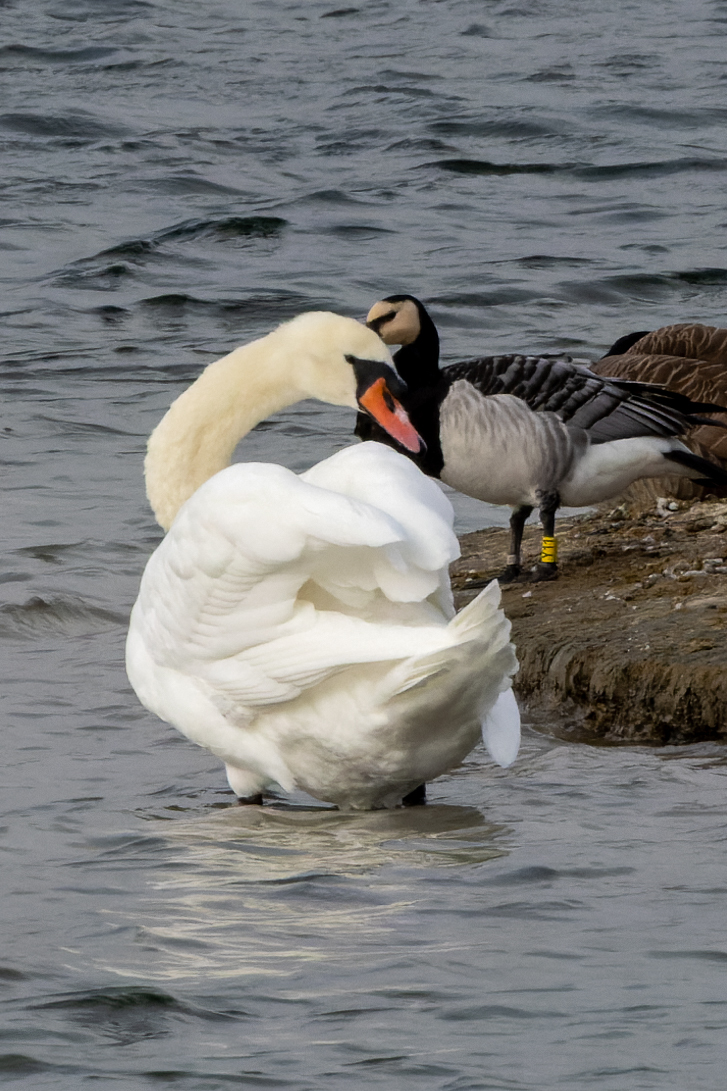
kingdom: Animalia
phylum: Chordata
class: Aves
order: Anseriformes
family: Anatidae
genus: Cygnus
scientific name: Cygnus olor
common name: Mute swan
